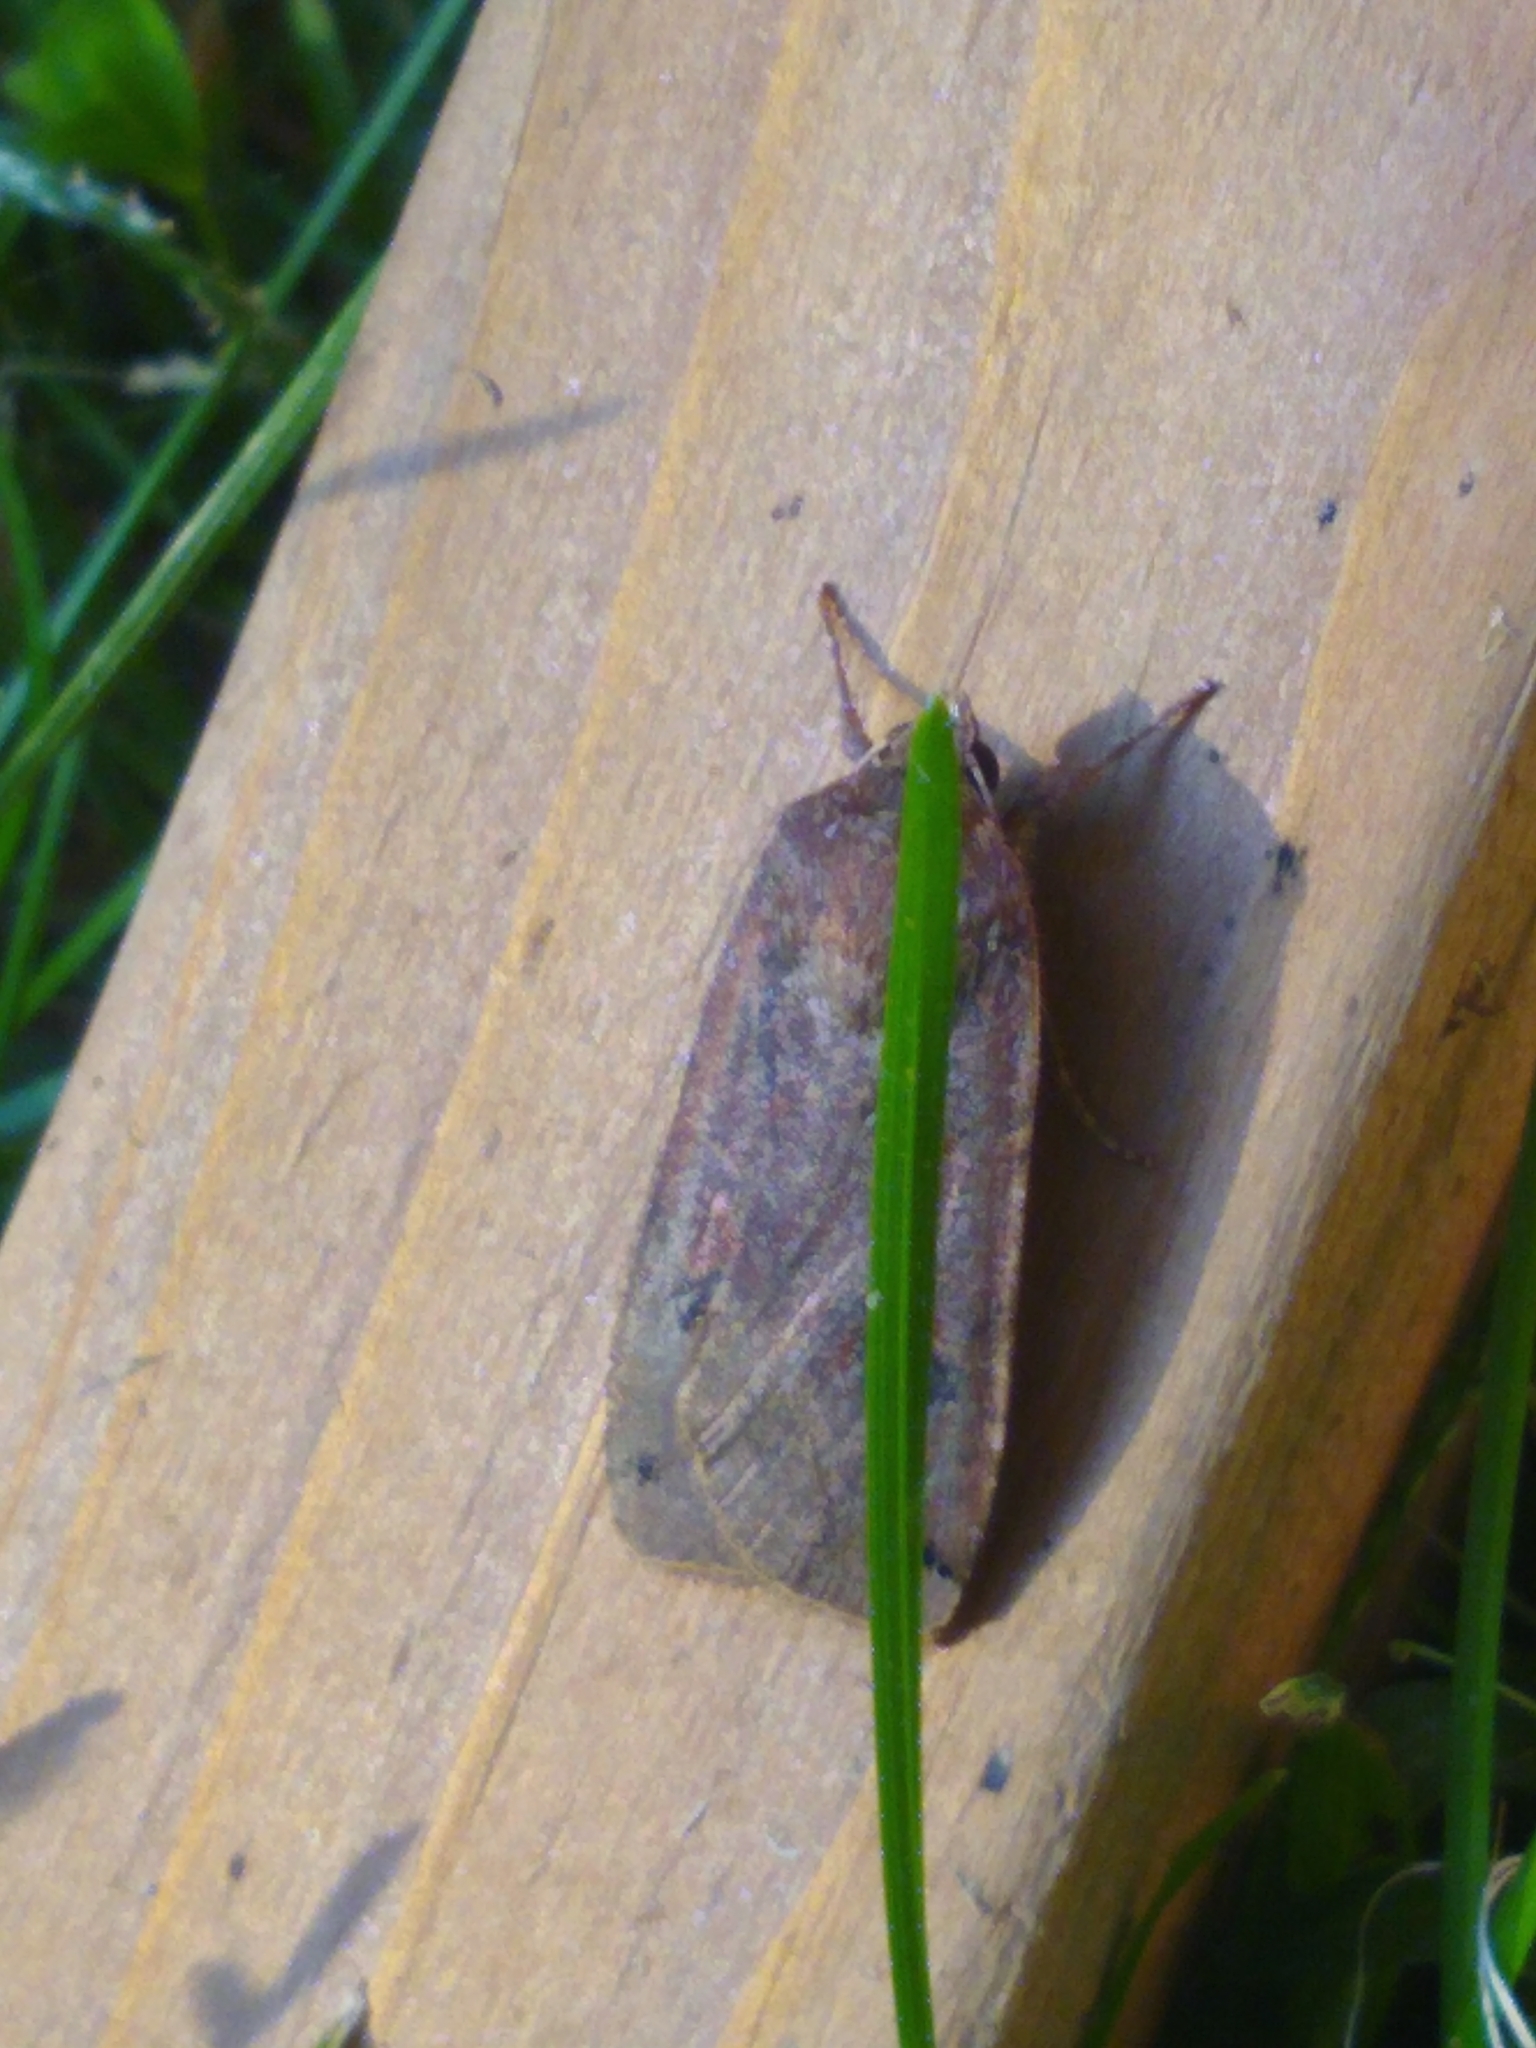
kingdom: Animalia
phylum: Arthropoda
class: Insecta
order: Lepidoptera
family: Noctuidae
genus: Noctua
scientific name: Noctua pronuba
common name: Large yellow underwing
